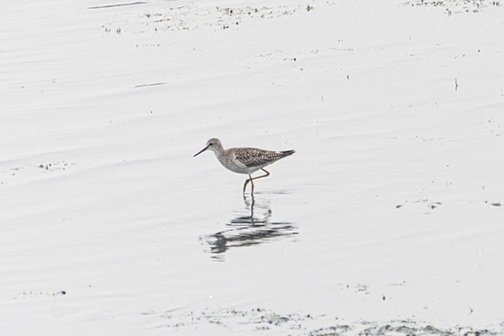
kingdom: Animalia
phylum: Chordata
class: Aves
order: Charadriiformes
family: Scolopacidae
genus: Tringa
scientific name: Tringa melanoleuca
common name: Greater yellowlegs
